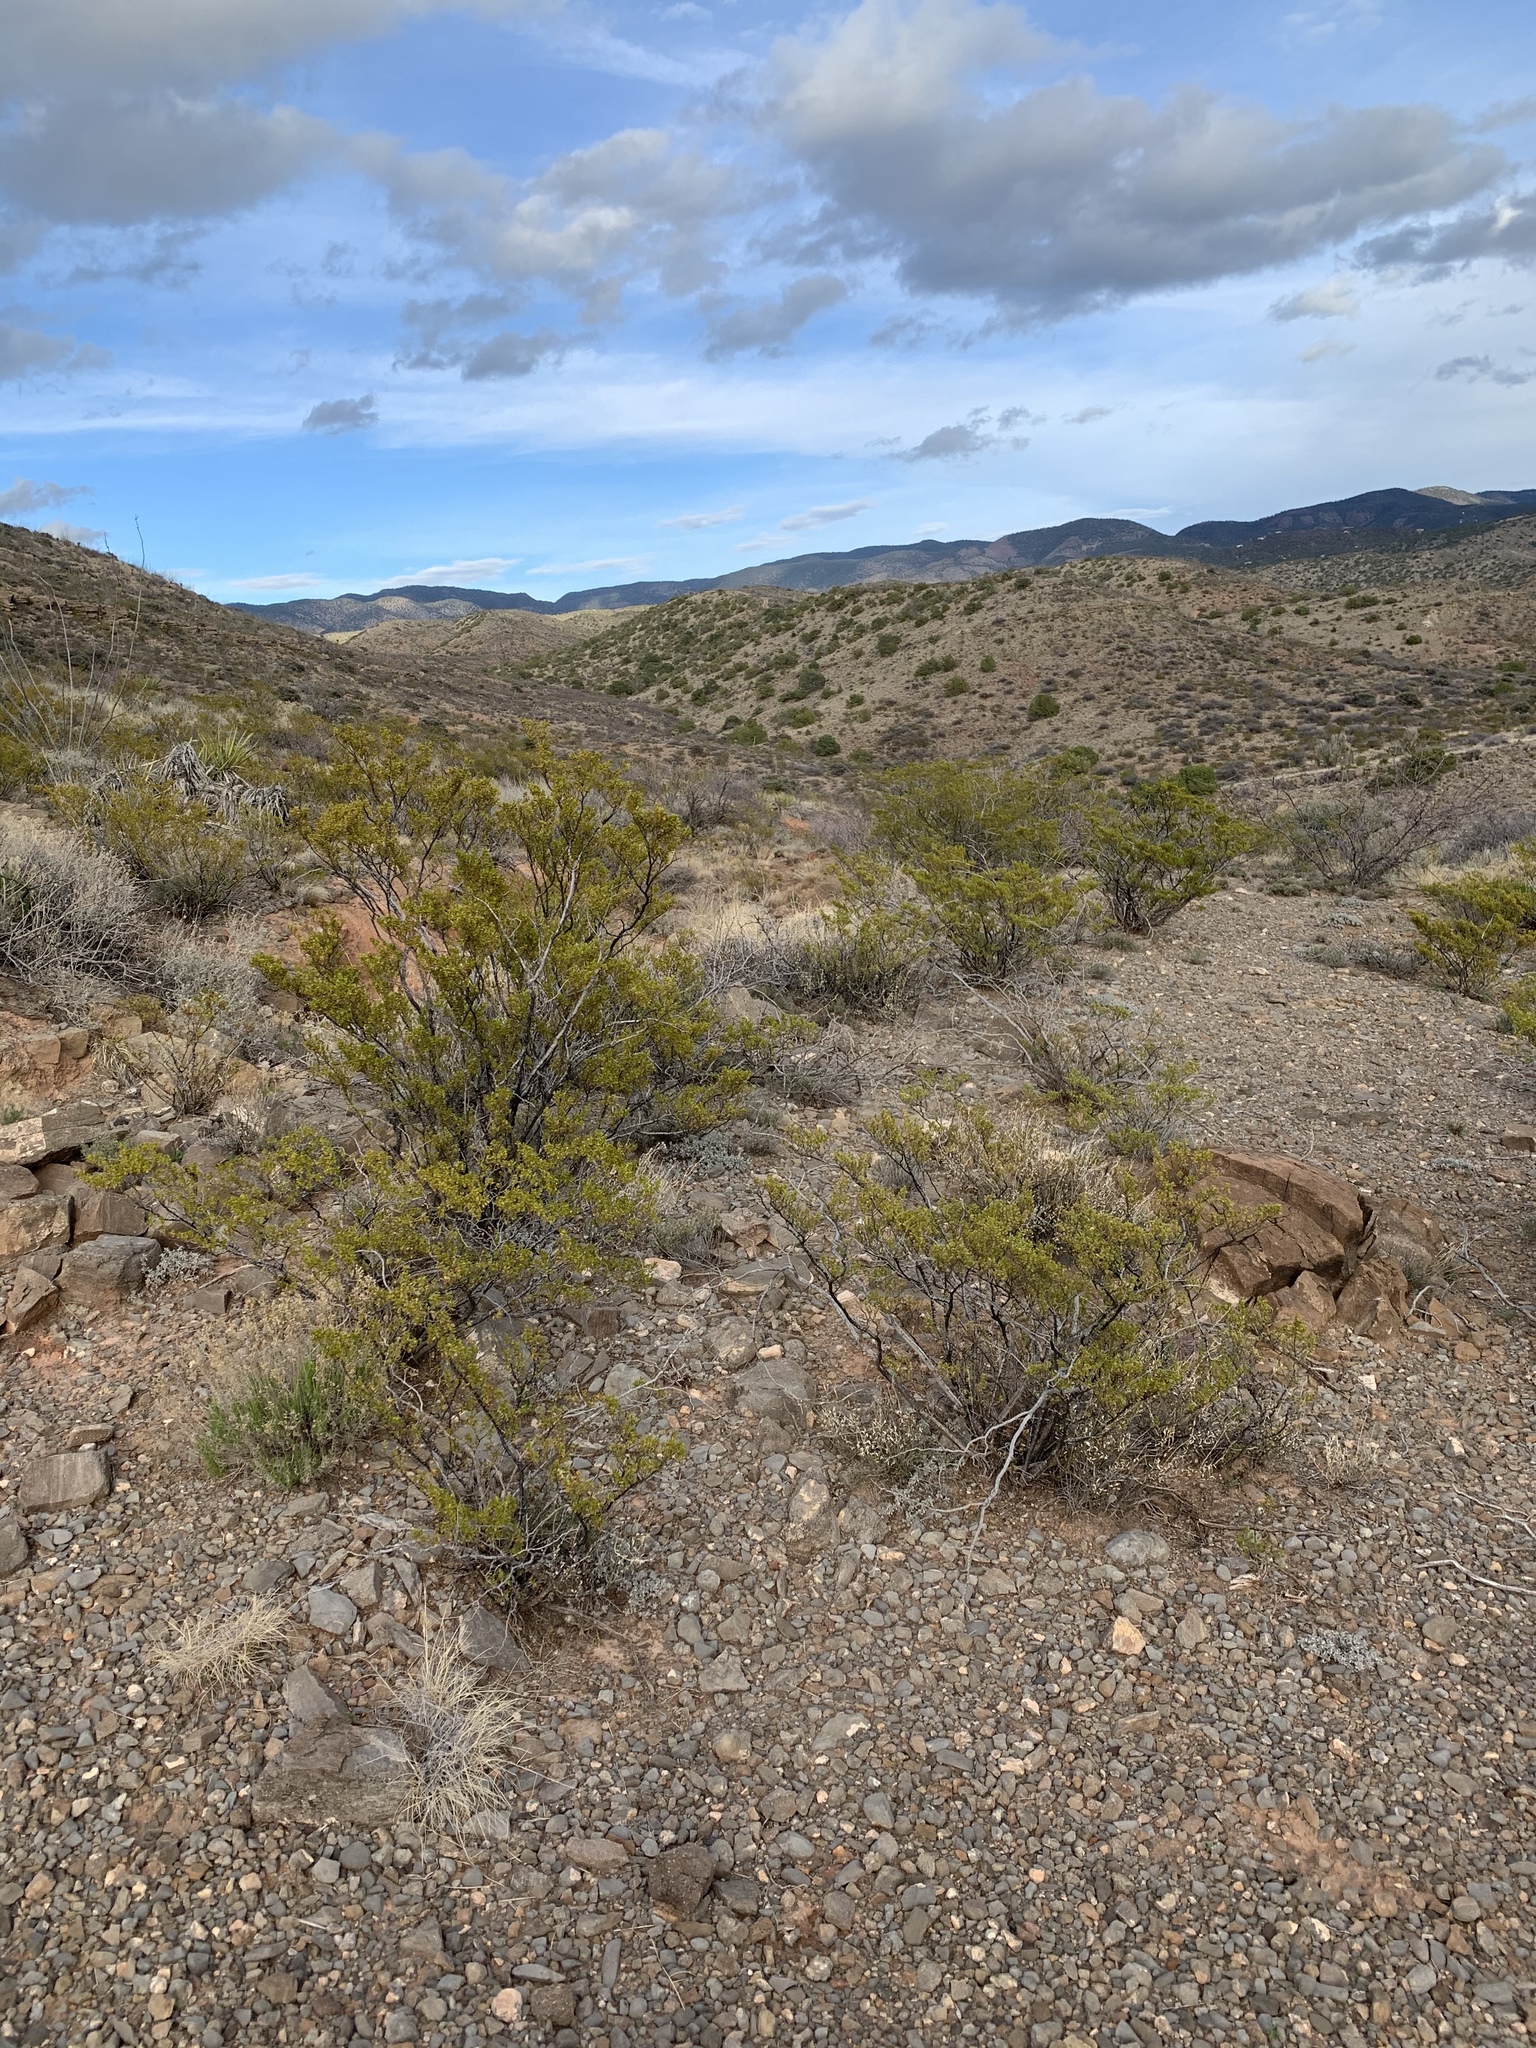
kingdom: Plantae
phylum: Tracheophyta
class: Magnoliopsida
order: Zygophyllales
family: Zygophyllaceae
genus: Larrea
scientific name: Larrea tridentata
